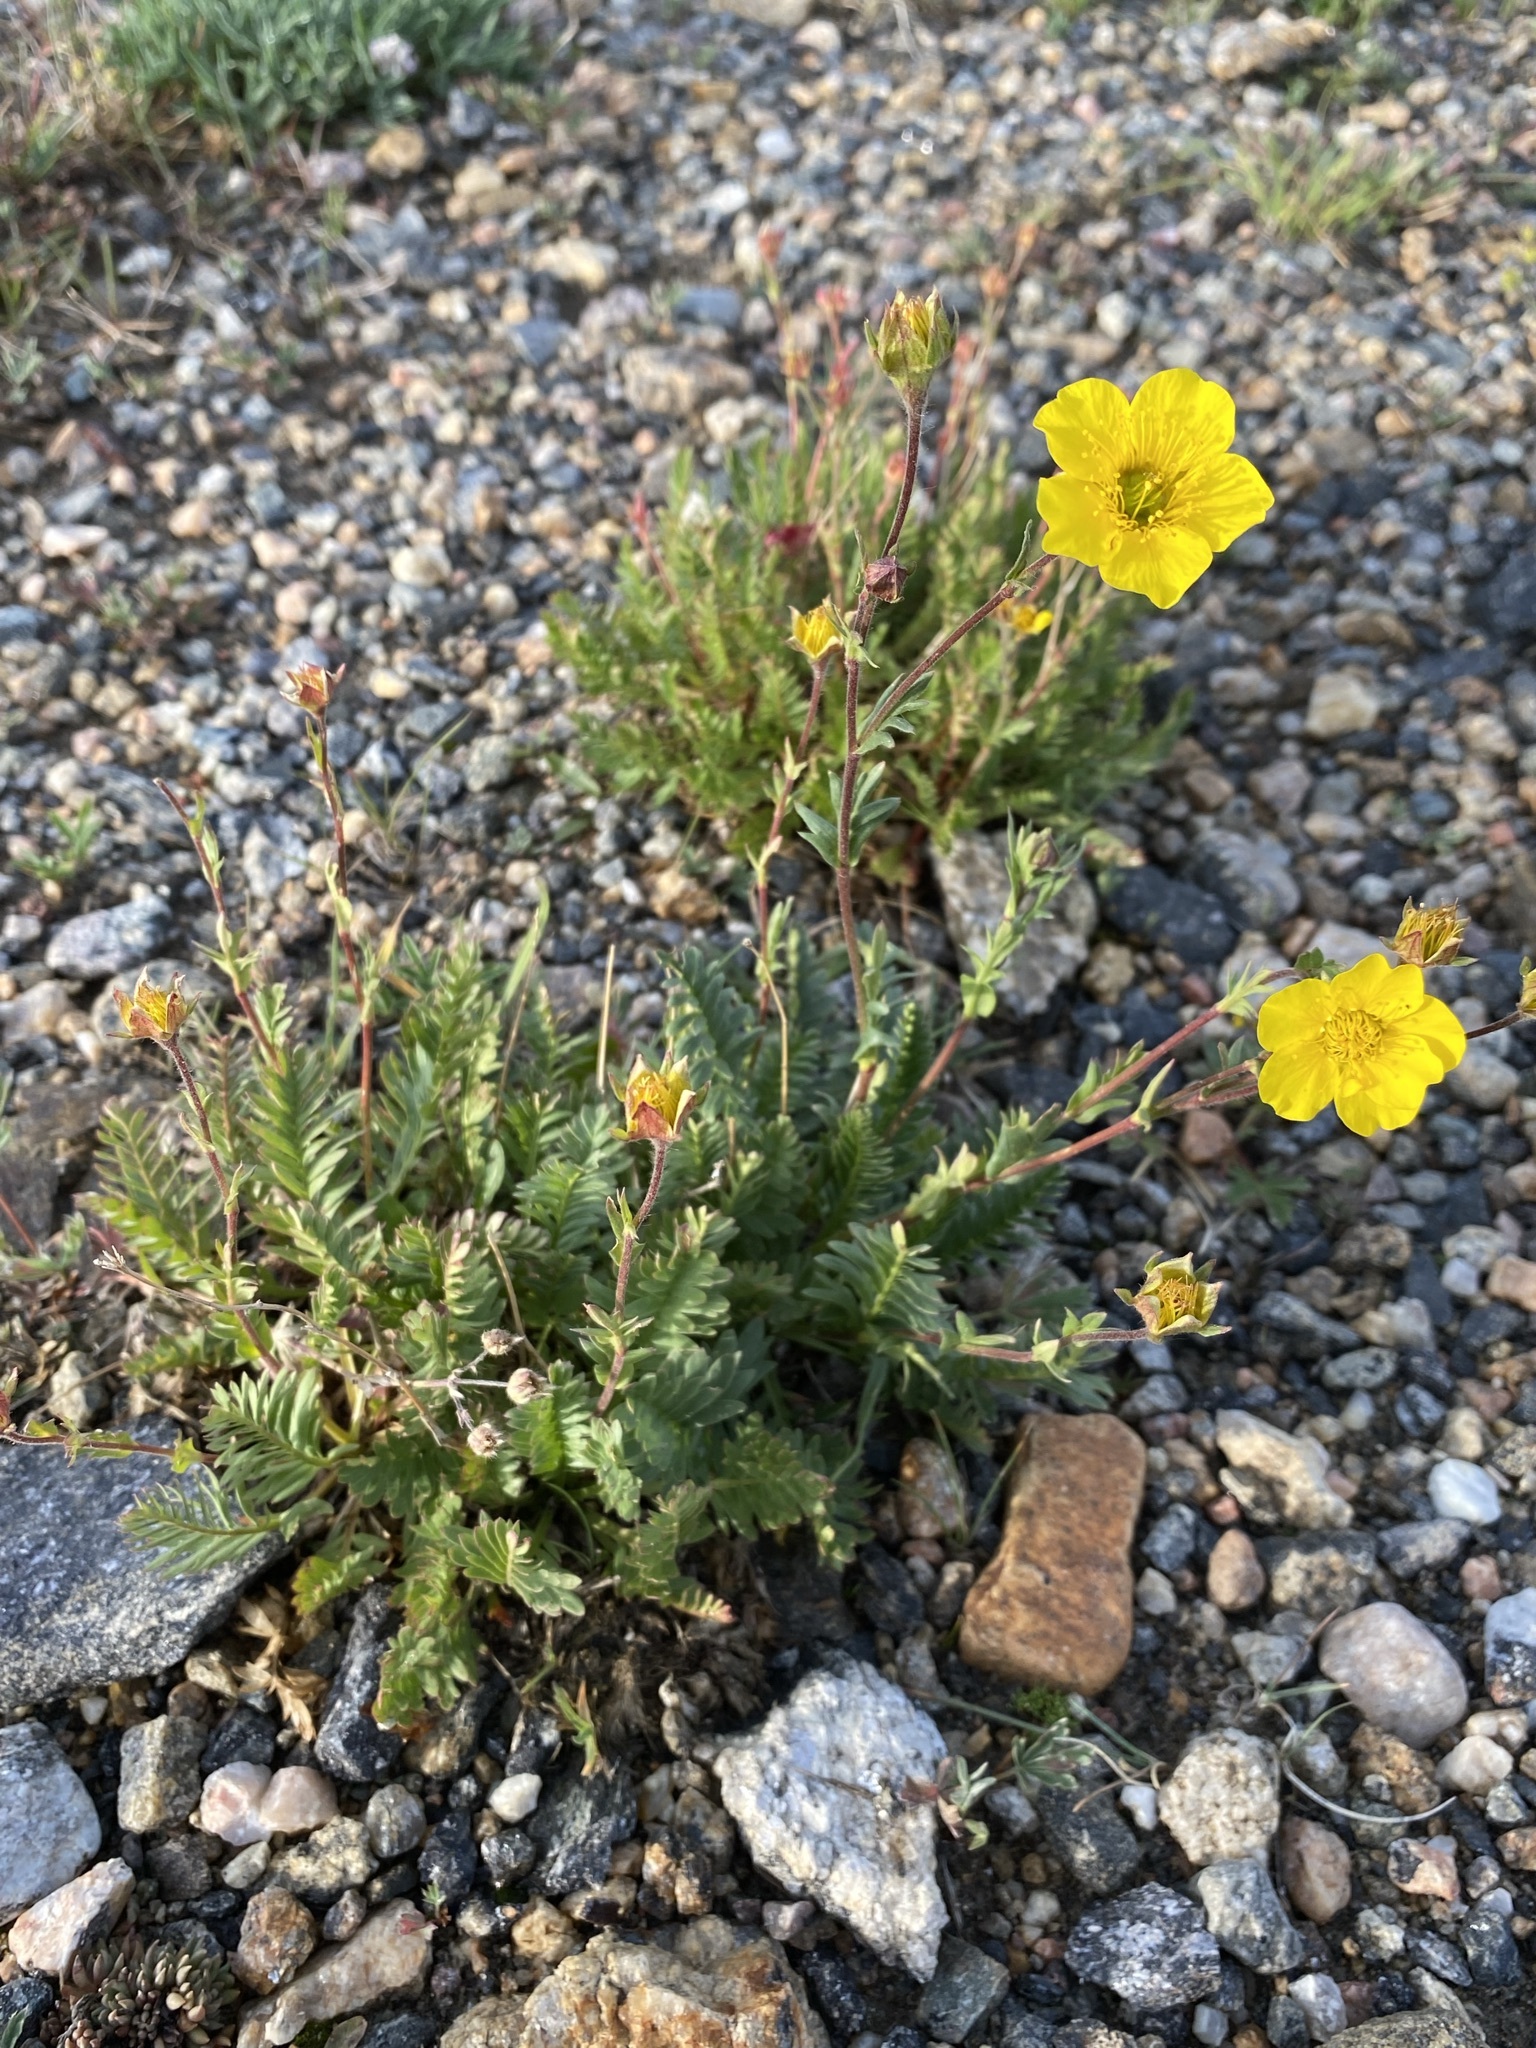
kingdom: Plantae
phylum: Tracheophyta
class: Magnoliopsida
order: Rosales
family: Rosaceae
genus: Geum
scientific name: Geum rossii
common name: Alpine avens
